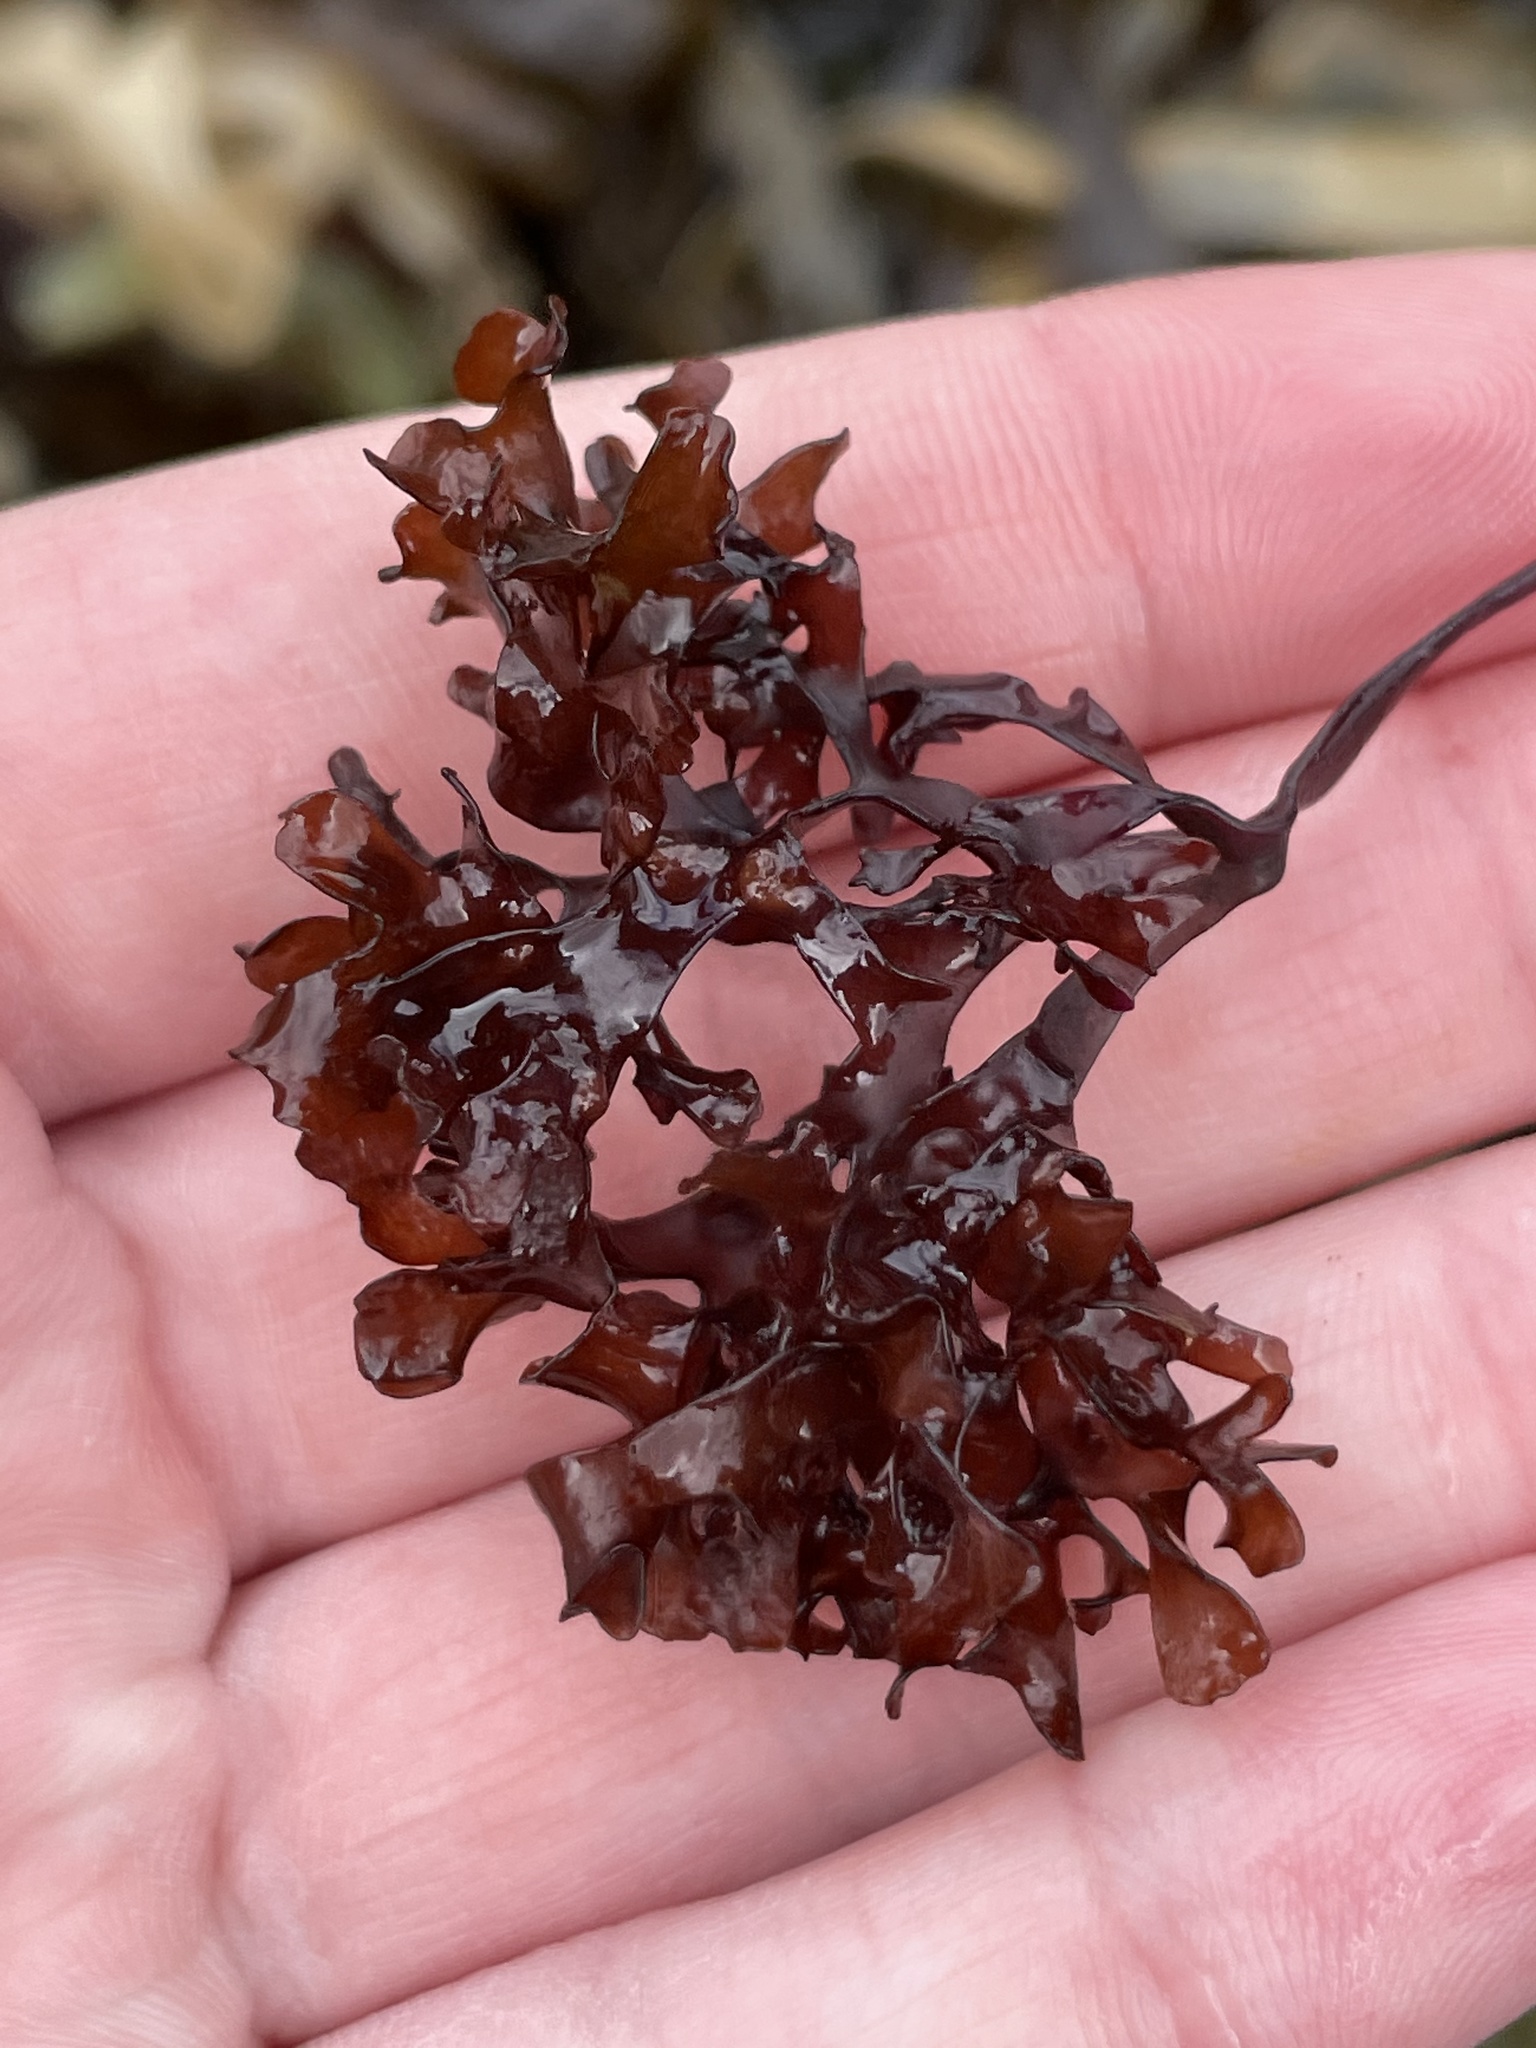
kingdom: Plantae
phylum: Rhodophyta
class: Florideophyceae
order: Gigartinales
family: Gigartinaceae
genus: Chondrus
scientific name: Chondrus crispus
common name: Carrageen
